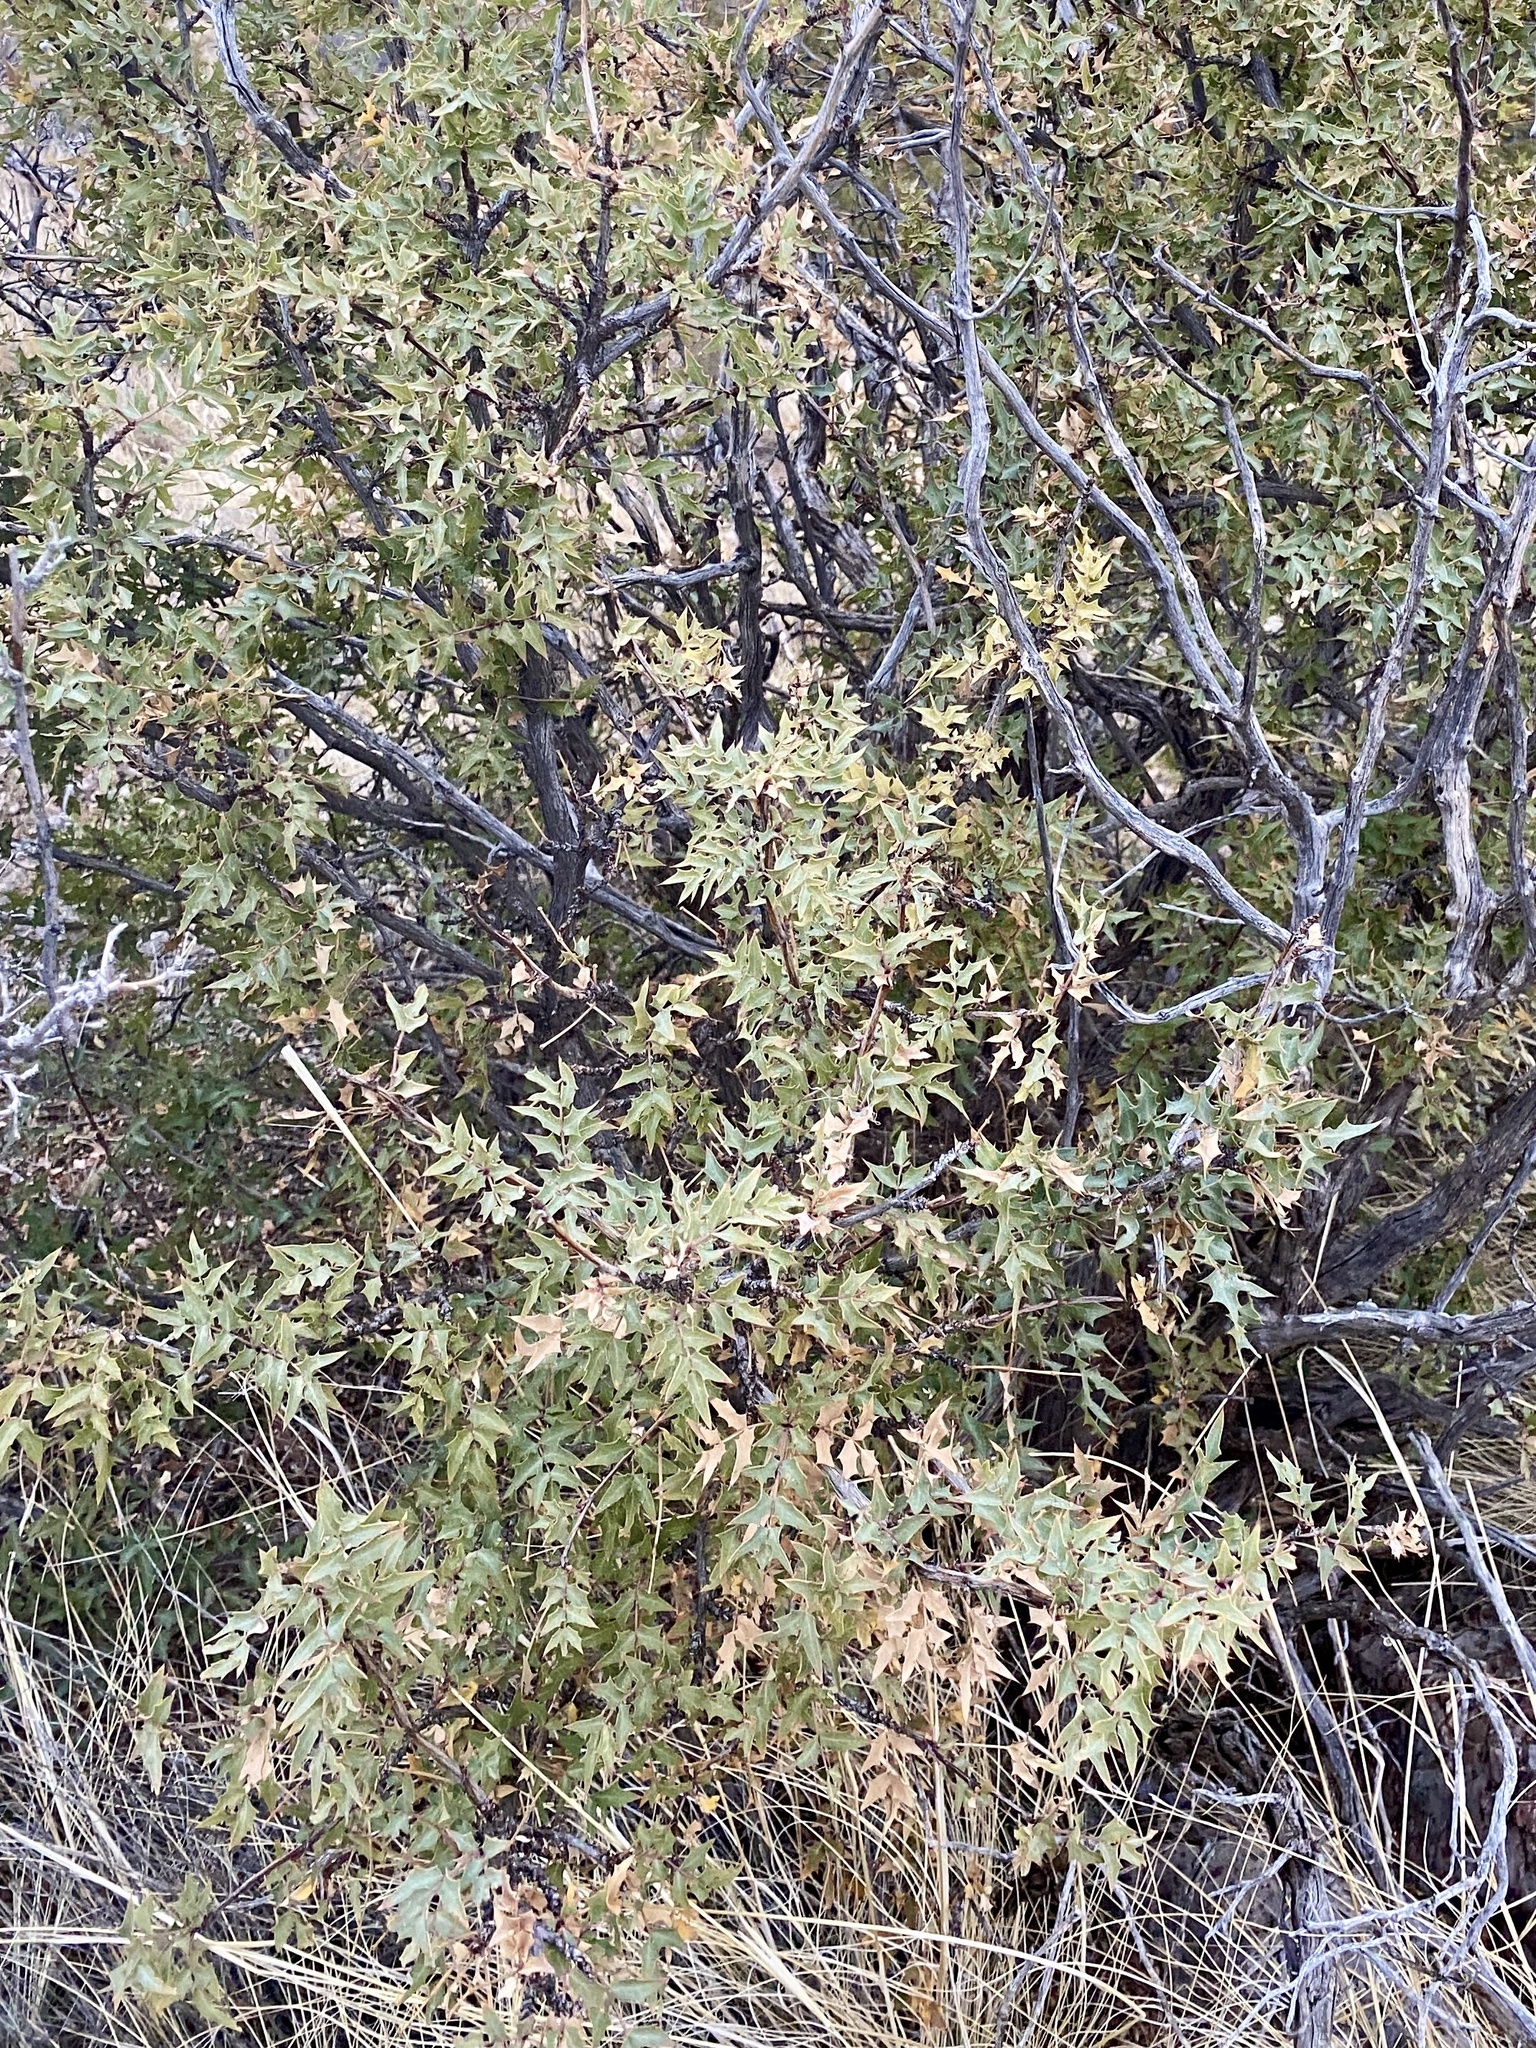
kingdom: Plantae
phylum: Tracheophyta
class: Magnoliopsida
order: Ranunculales
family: Berberidaceae
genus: Alloberberis
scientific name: Alloberberis haematocarpa
